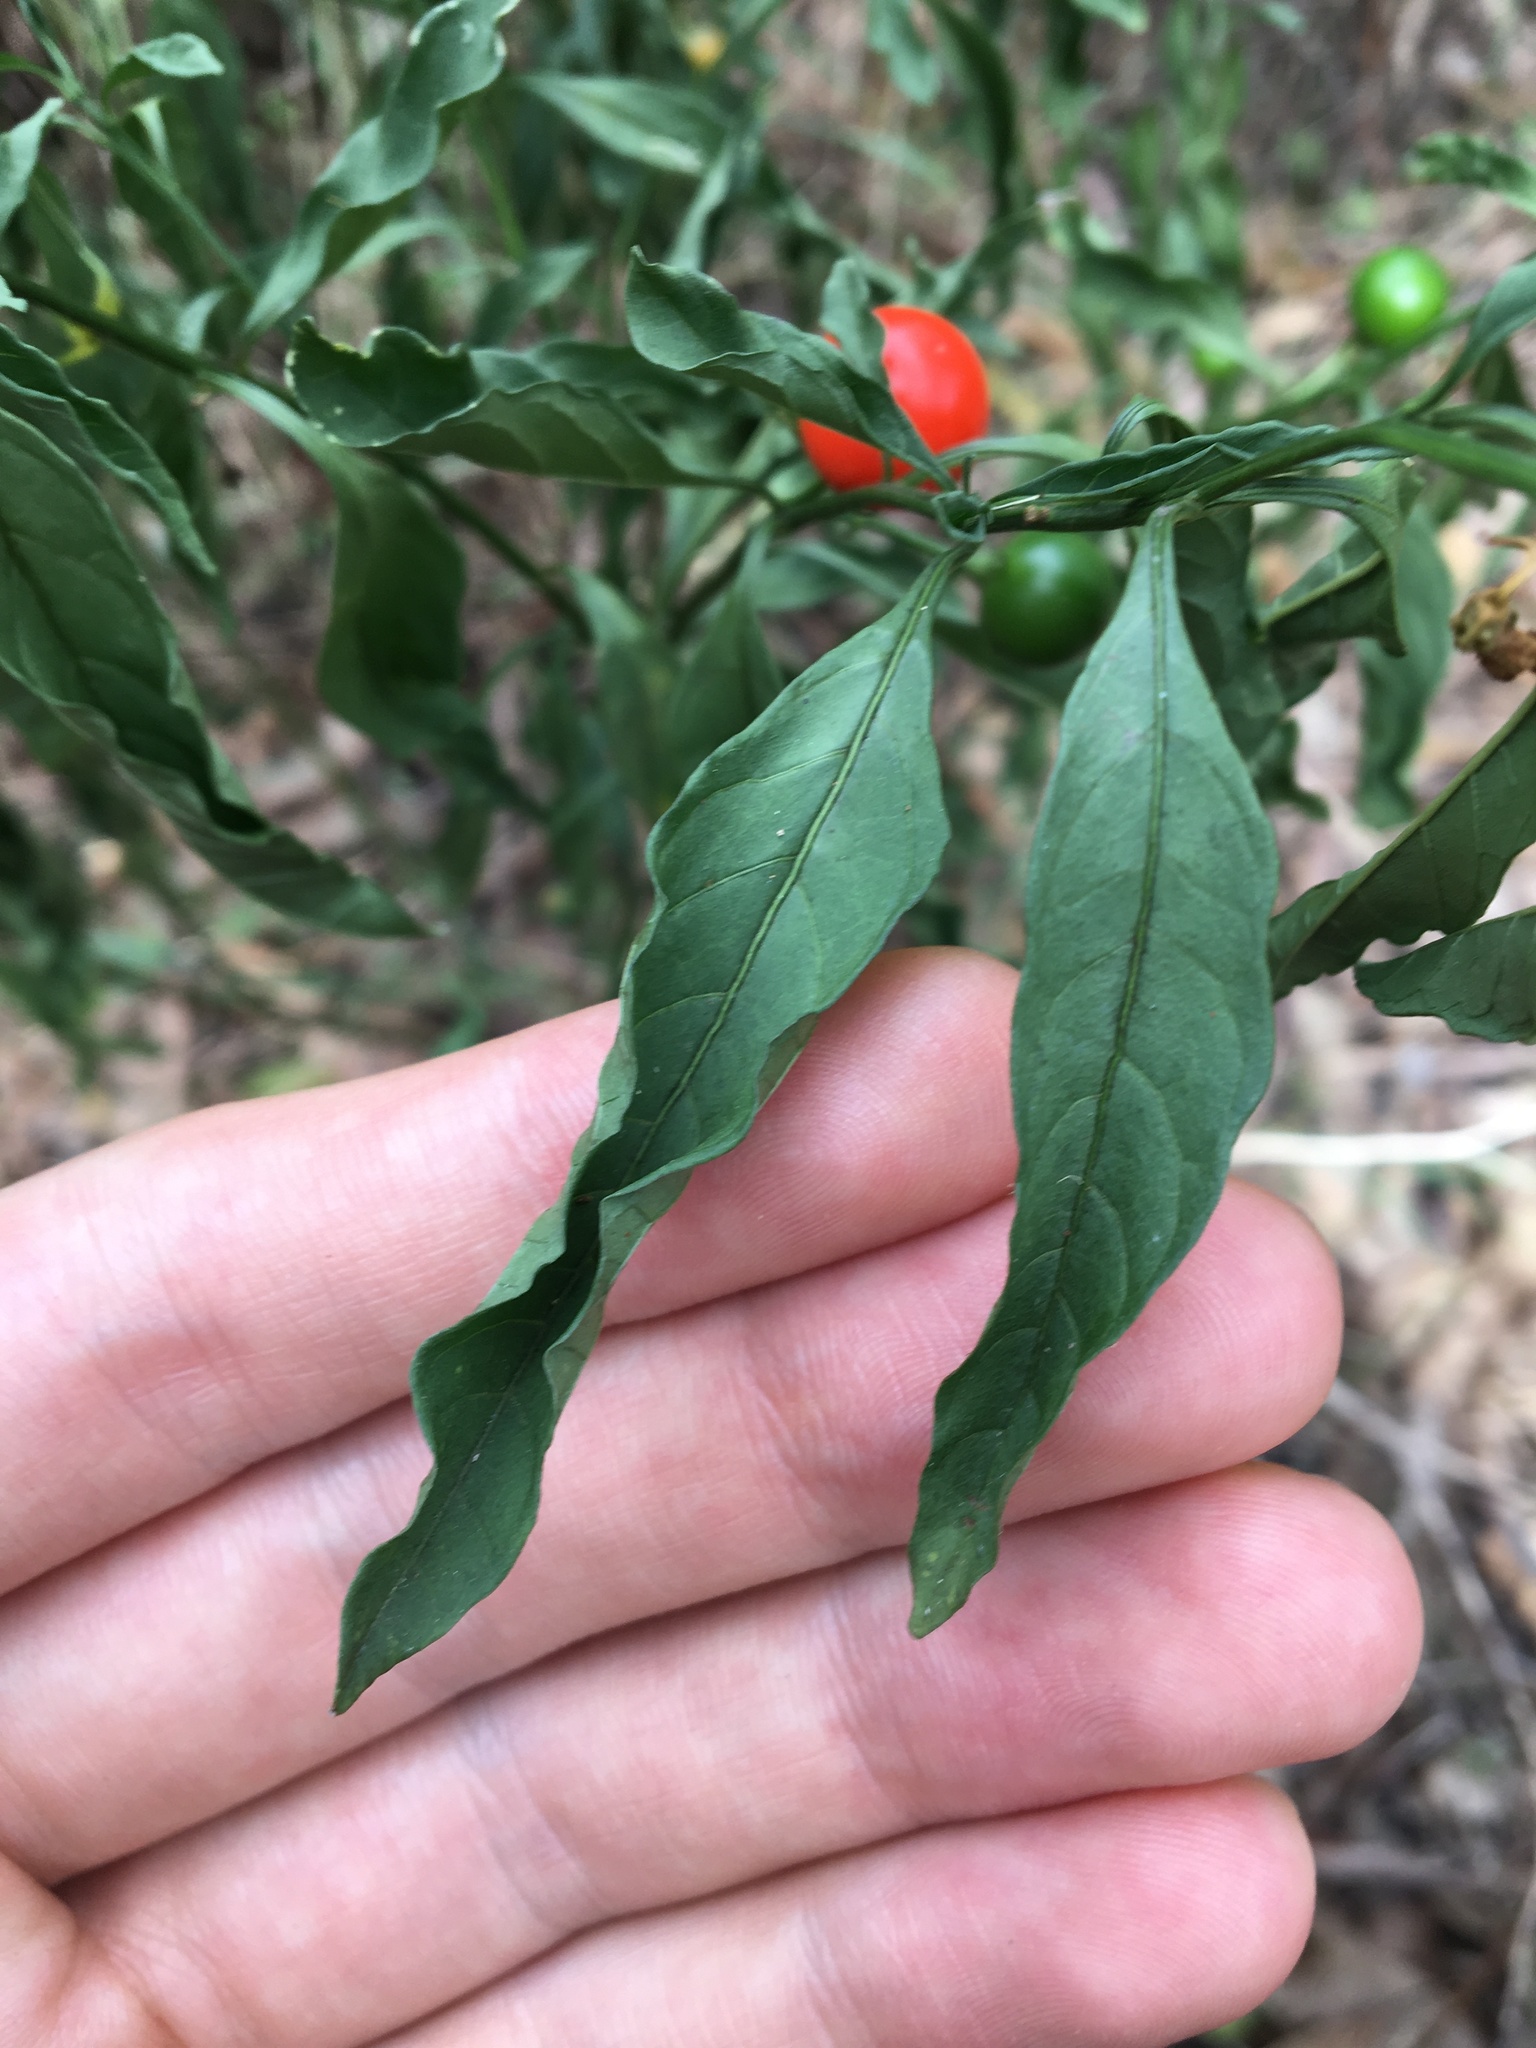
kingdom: Plantae
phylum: Tracheophyta
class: Magnoliopsida
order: Solanales
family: Solanaceae
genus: Solanum
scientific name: Solanum pseudocapsicum
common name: Jerusalem cherry
